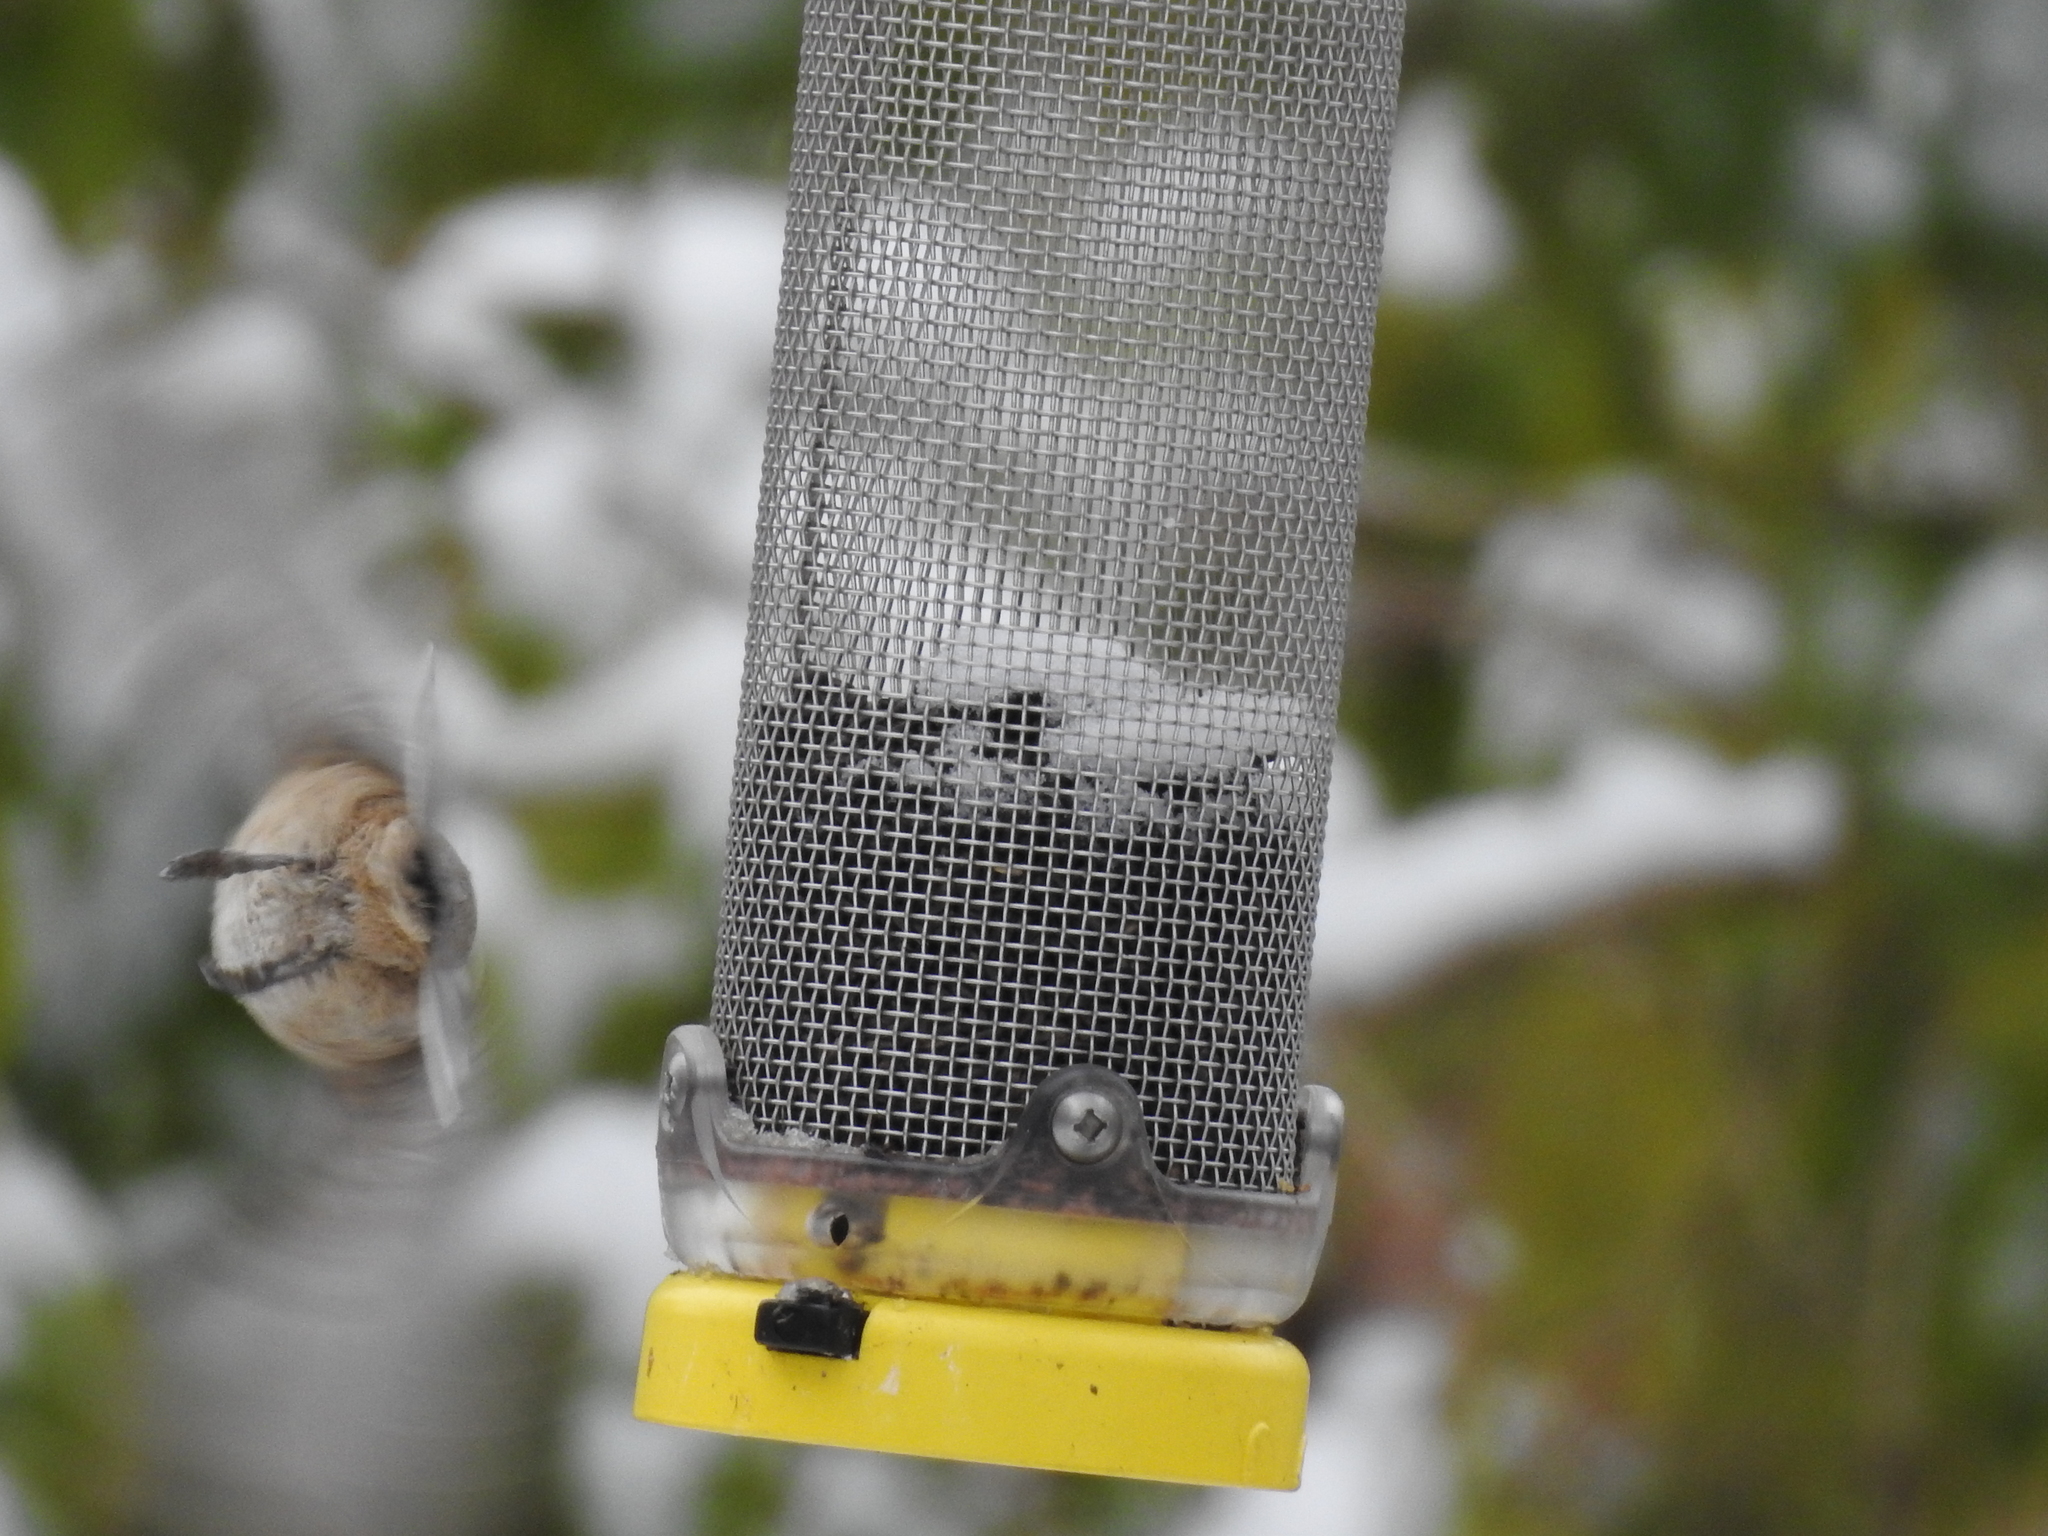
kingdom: Animalia
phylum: Chordata
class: Aves
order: Passeriformes
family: Paridae
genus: Poecile
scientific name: Poecile carolinensis
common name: Carolina chickadee
